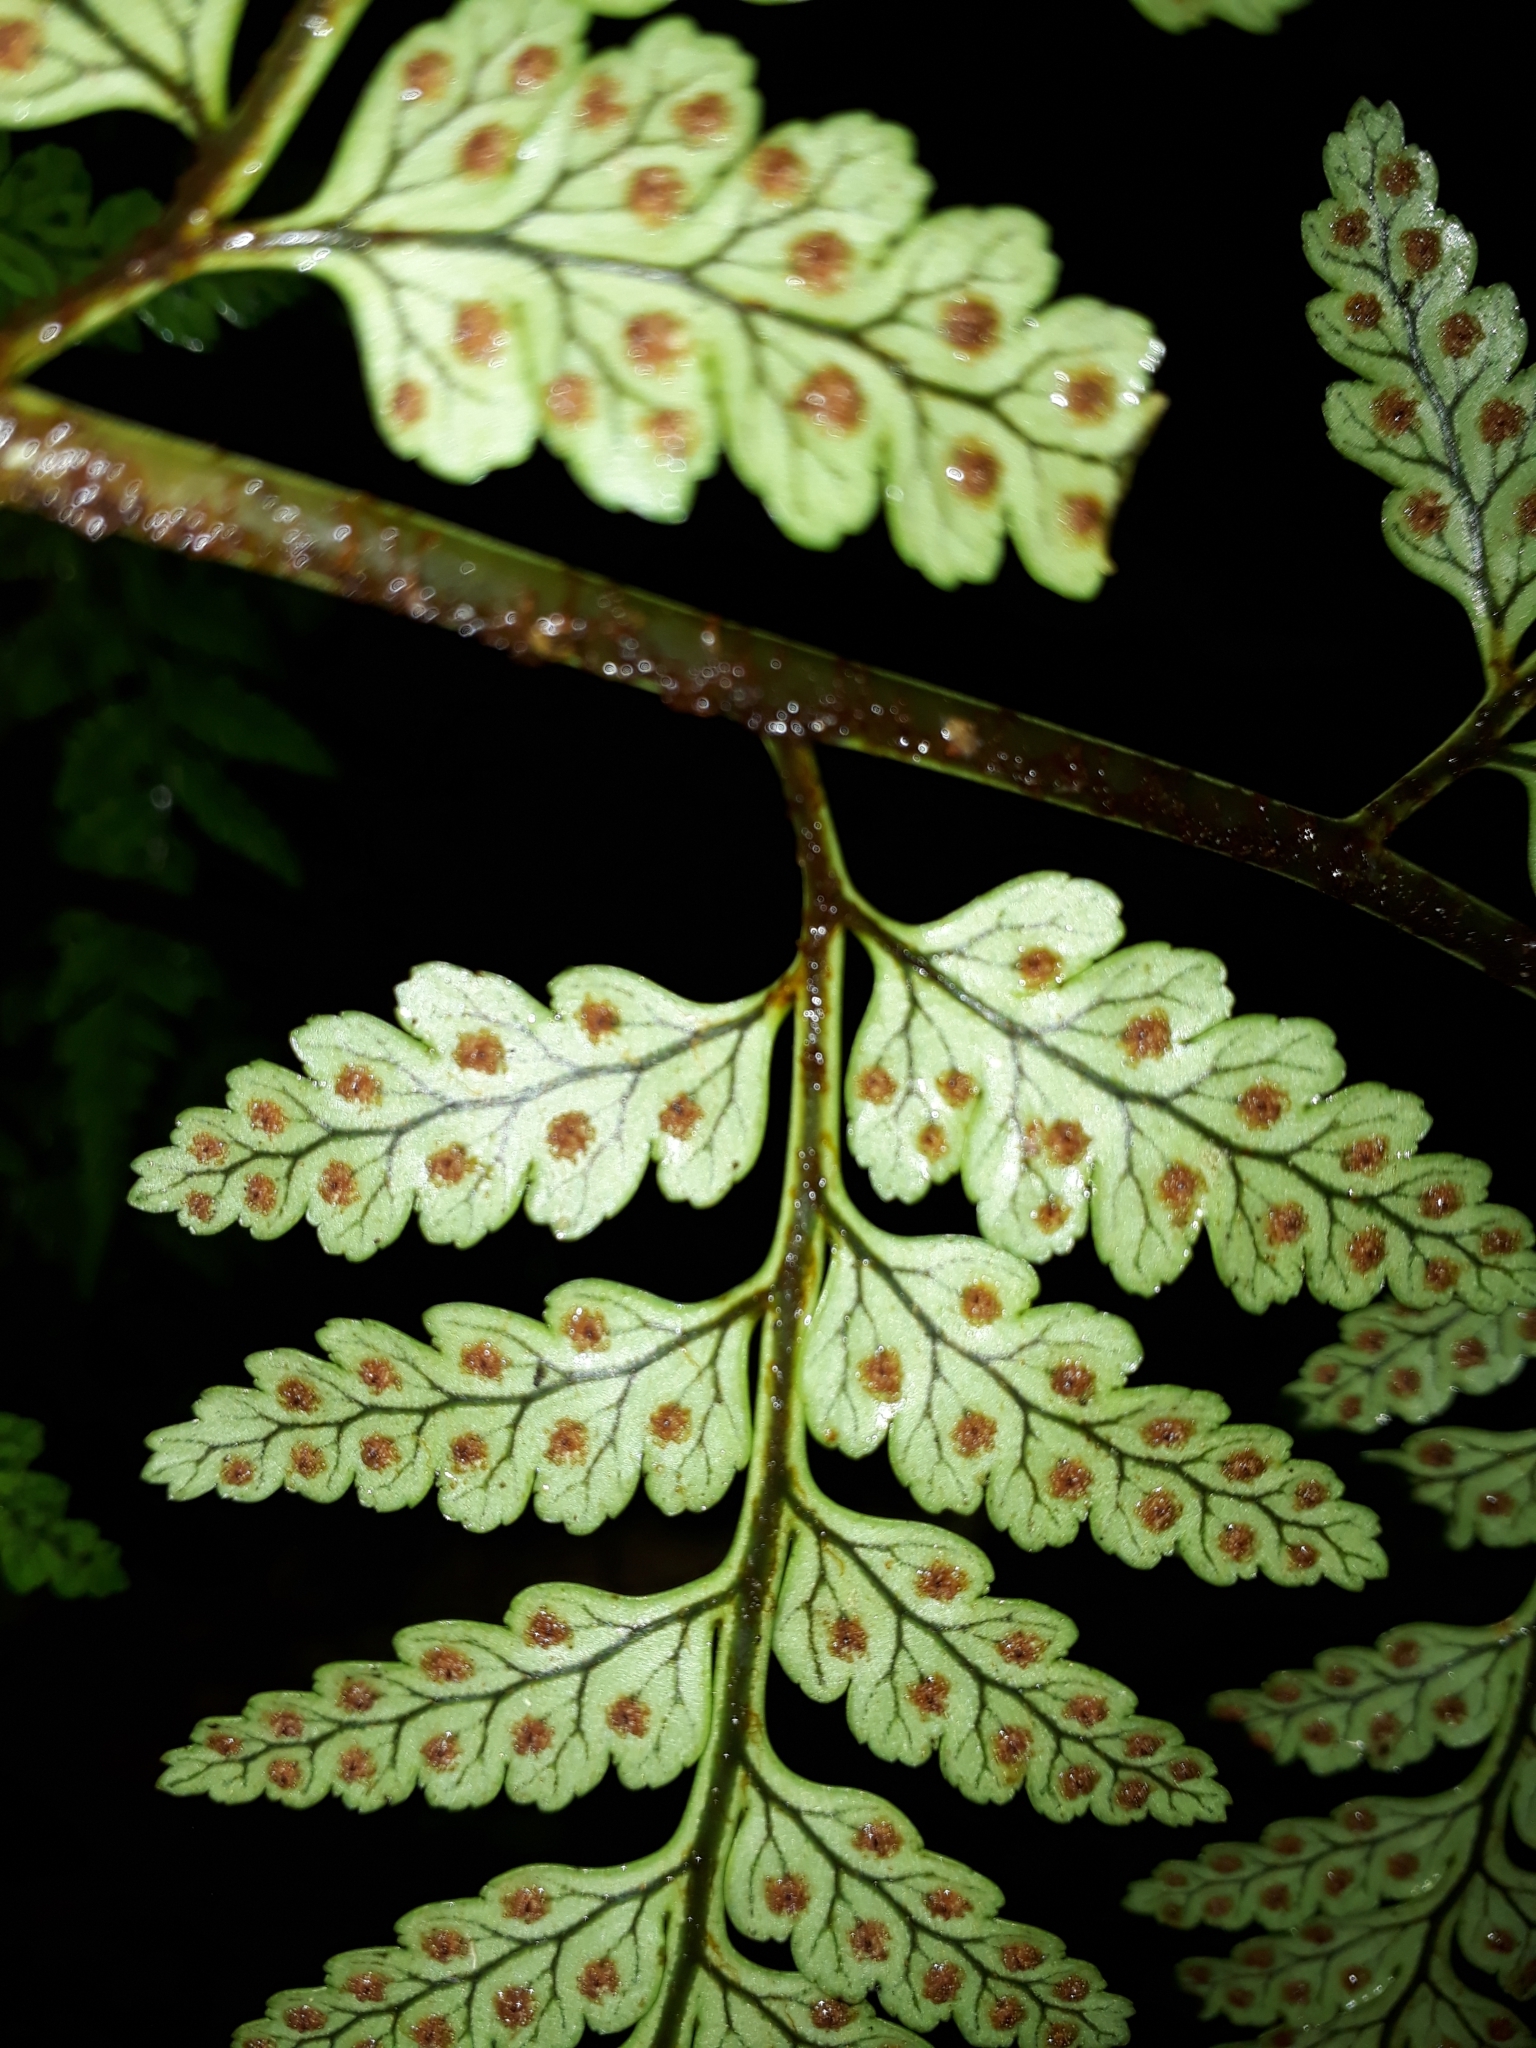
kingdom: Plantae
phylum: Tracheophyta
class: Polypodiopsida
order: Polypodiales
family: Dryopteridaceae
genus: Rumohra
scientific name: Rumohra adiantiformis
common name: Leather fern
